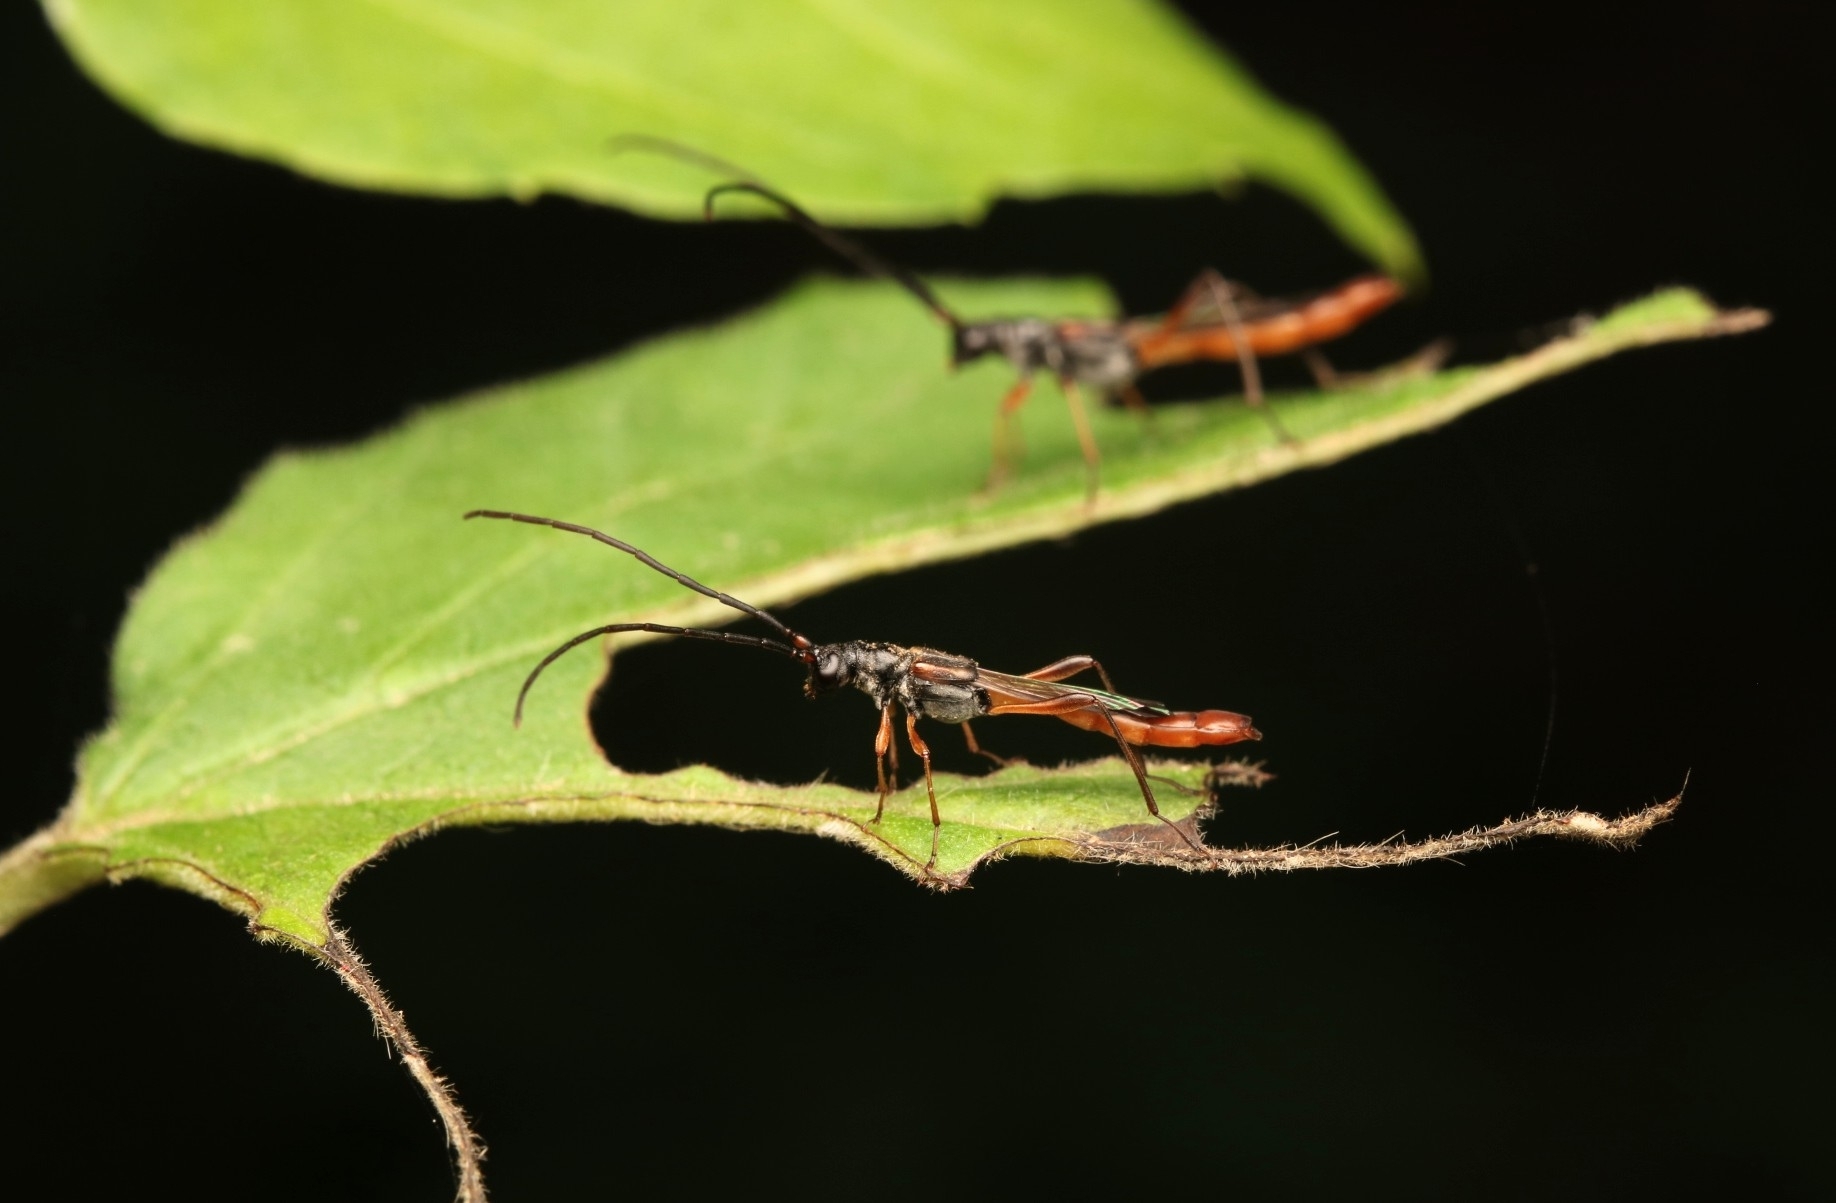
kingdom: Animalia
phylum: Arthropoda
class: Insecta
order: Coleoptera
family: Cerambycidae
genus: Necydalis
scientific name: Necydalis mellita
